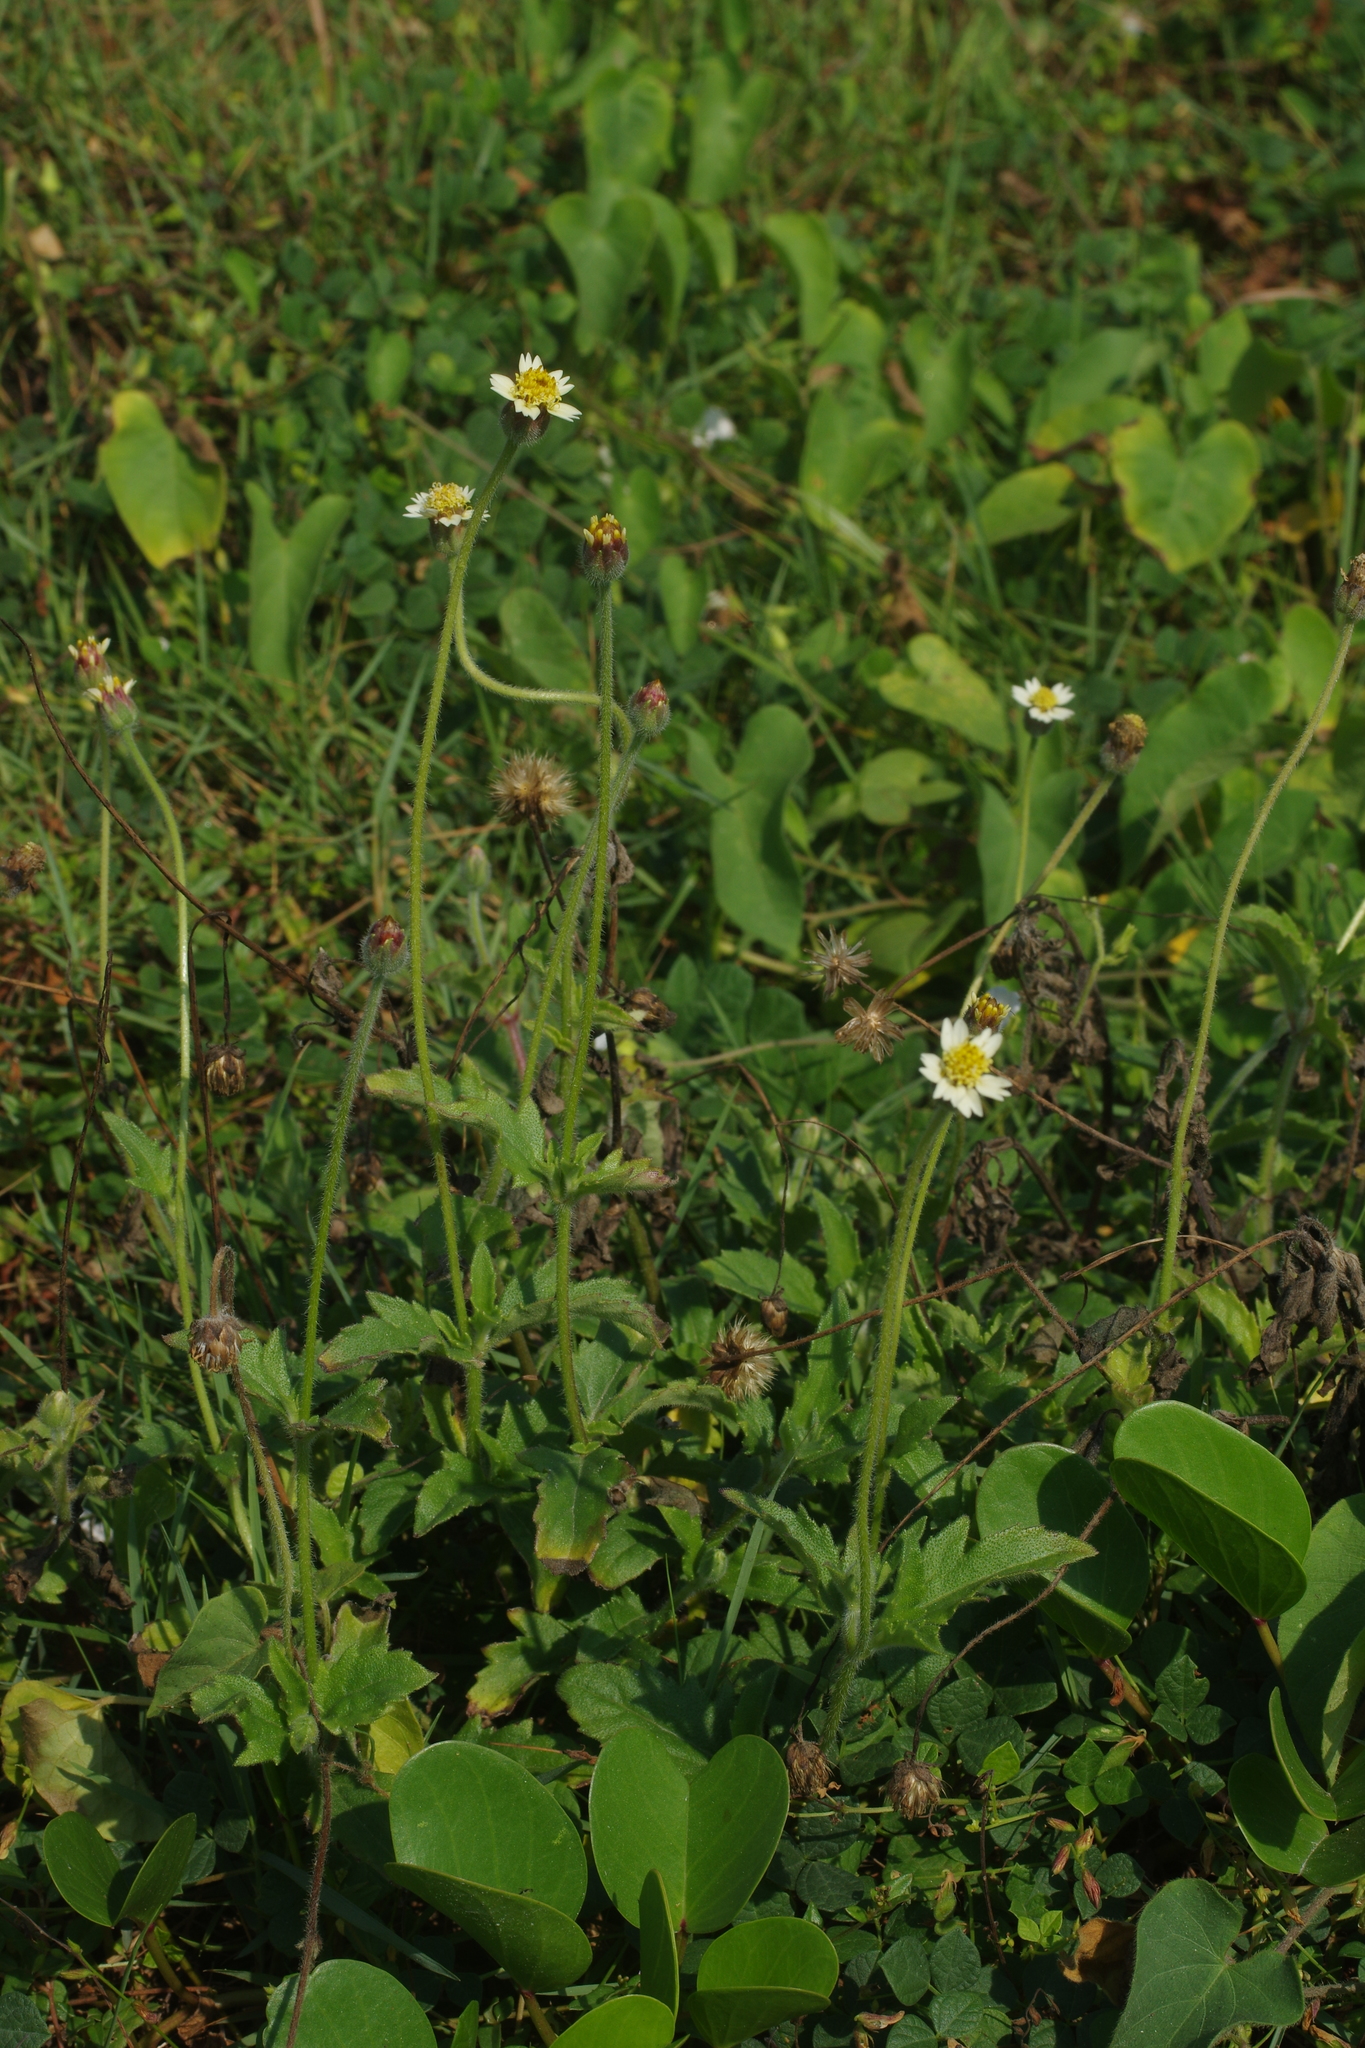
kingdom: Plantae
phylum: Tracheophyta
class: Magnoliopsida
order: Asterales
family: Asteraceae
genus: Tridax
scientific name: Tridax procumbens
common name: Coatbuttons
